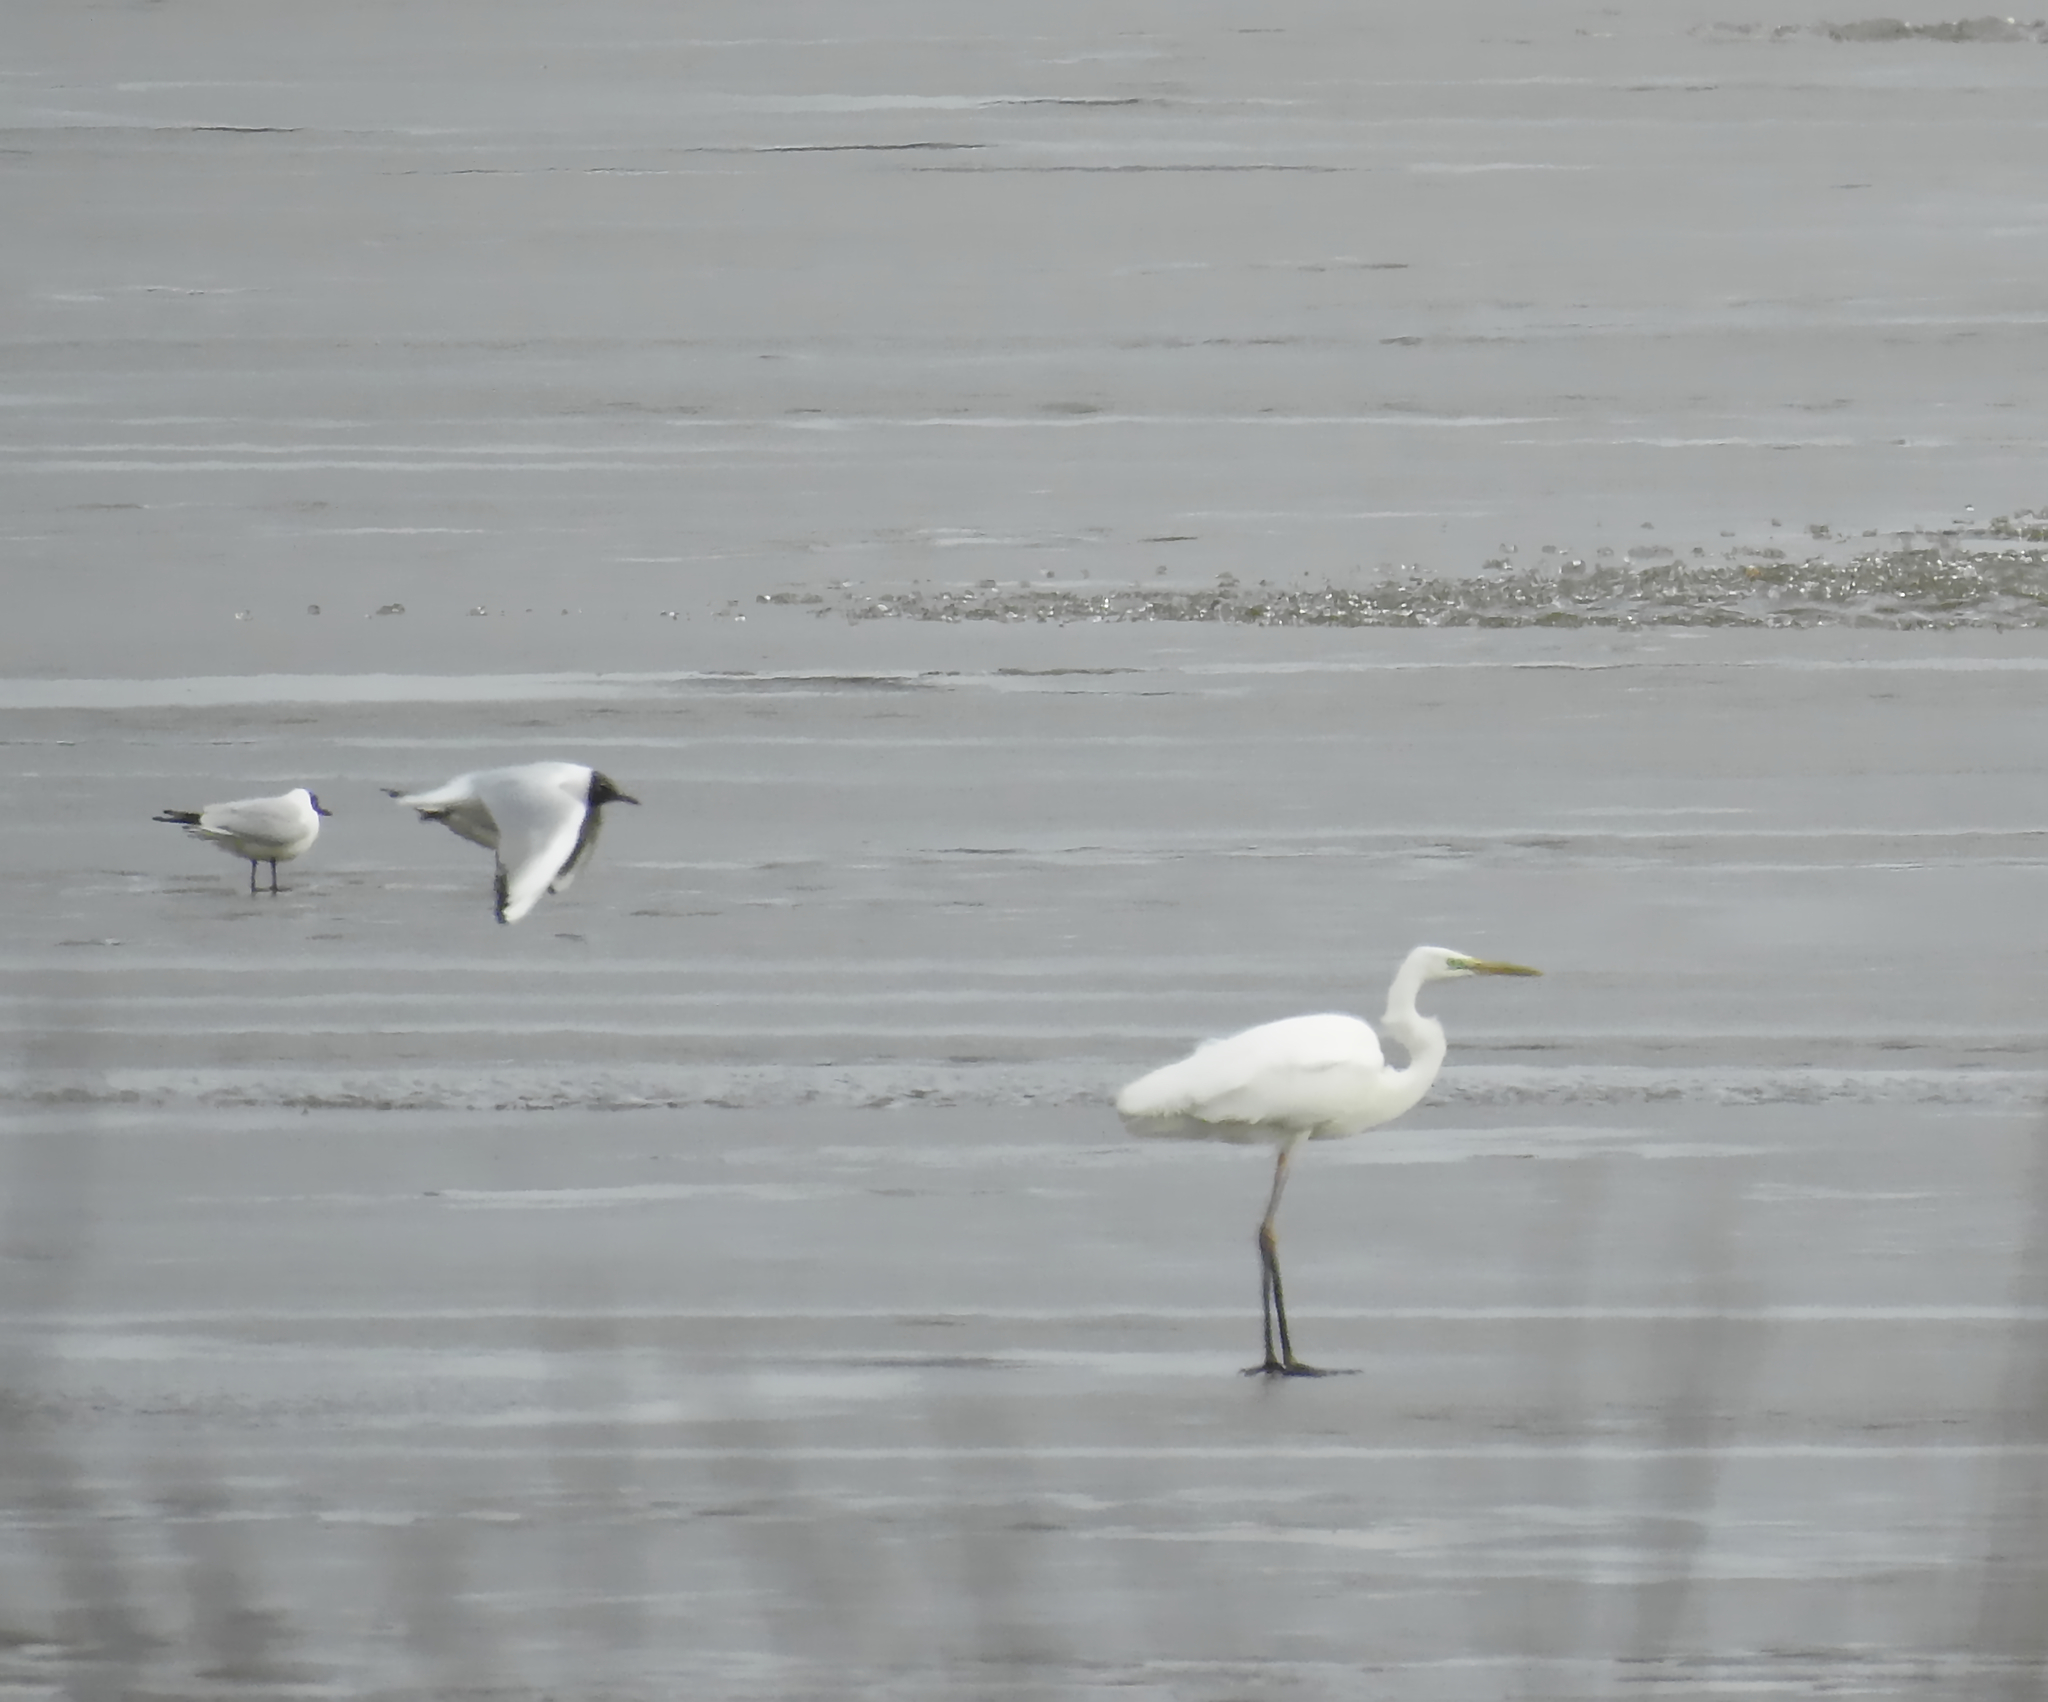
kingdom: Animalia
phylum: Chordata
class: Aves
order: Charadriiformes
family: Laridae
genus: Chroicocephalus
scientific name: Chroicocephalus ridibundus
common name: Black-headed gull
